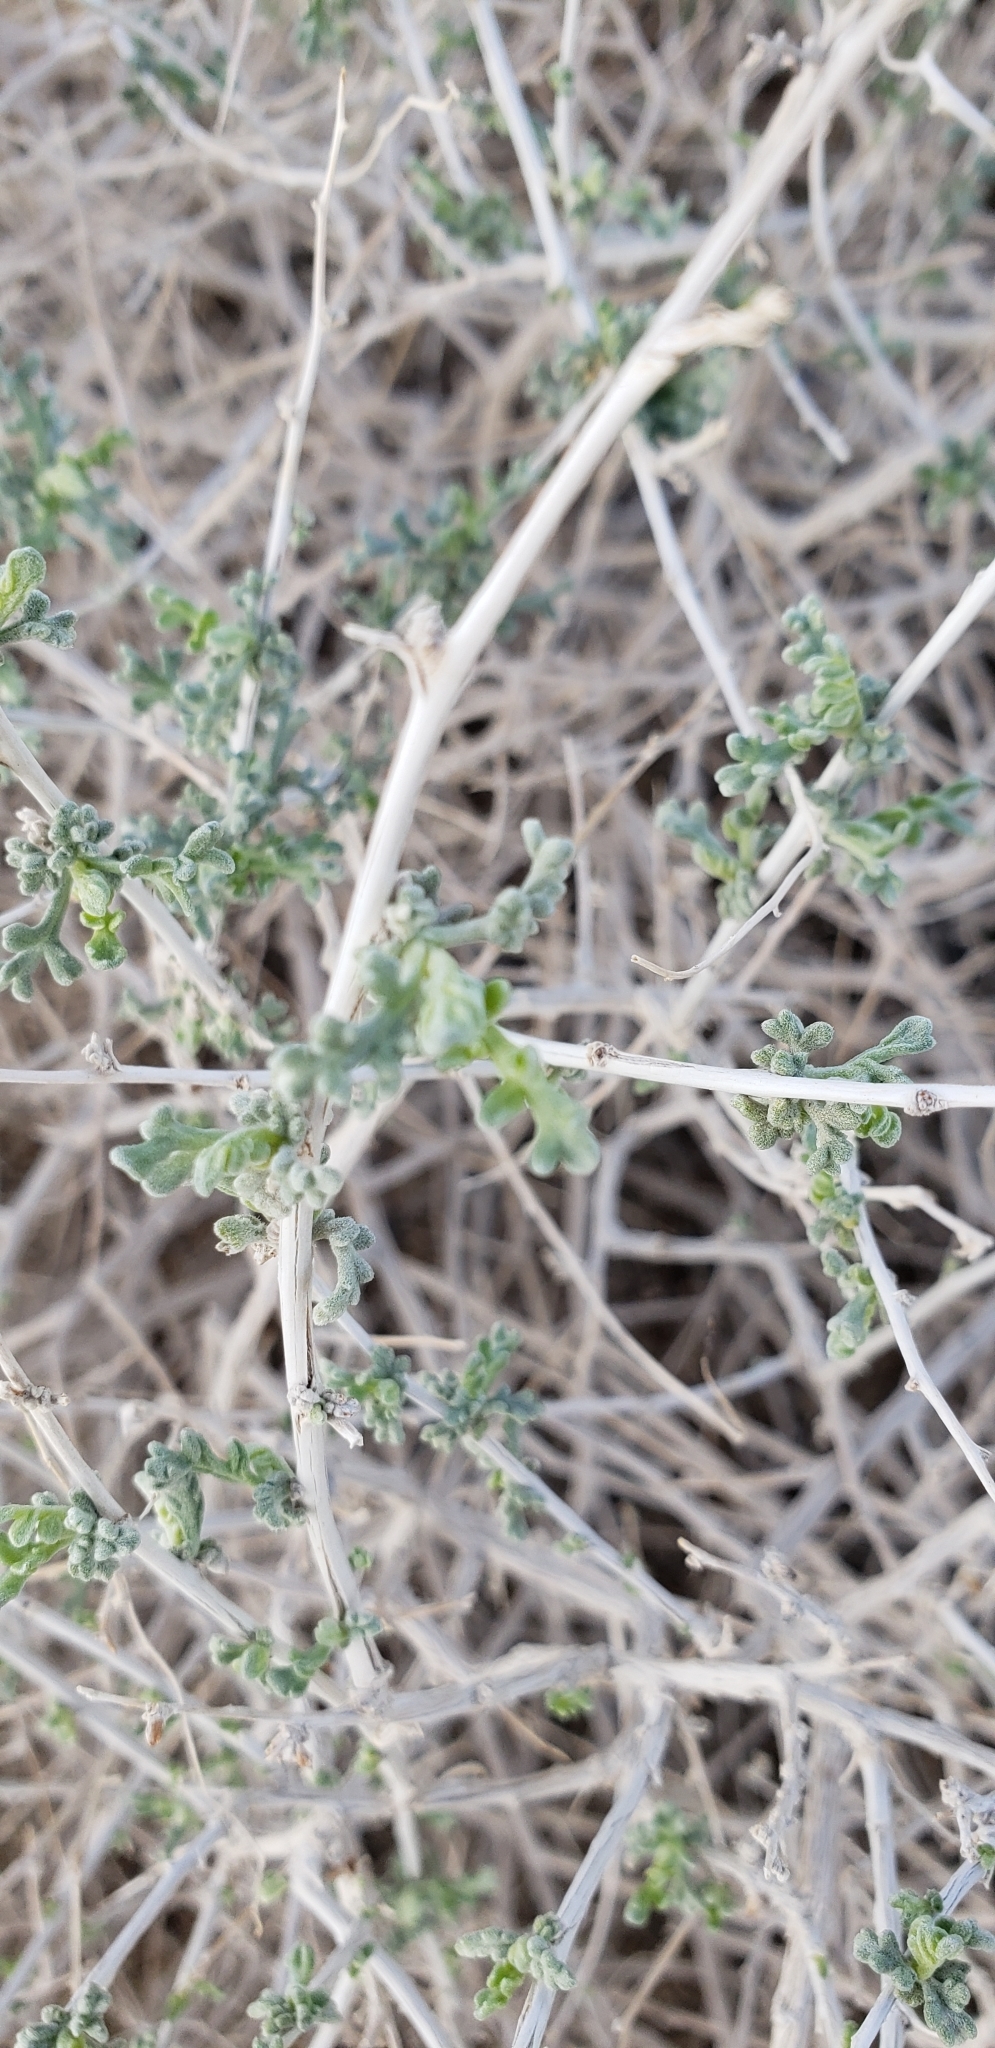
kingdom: Plantae
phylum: Tracheophyta
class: Magnoliopsida
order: Asterales
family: Asteraceae
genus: Ambrosia
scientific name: Ambrosia dumosa
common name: Bur-sage
